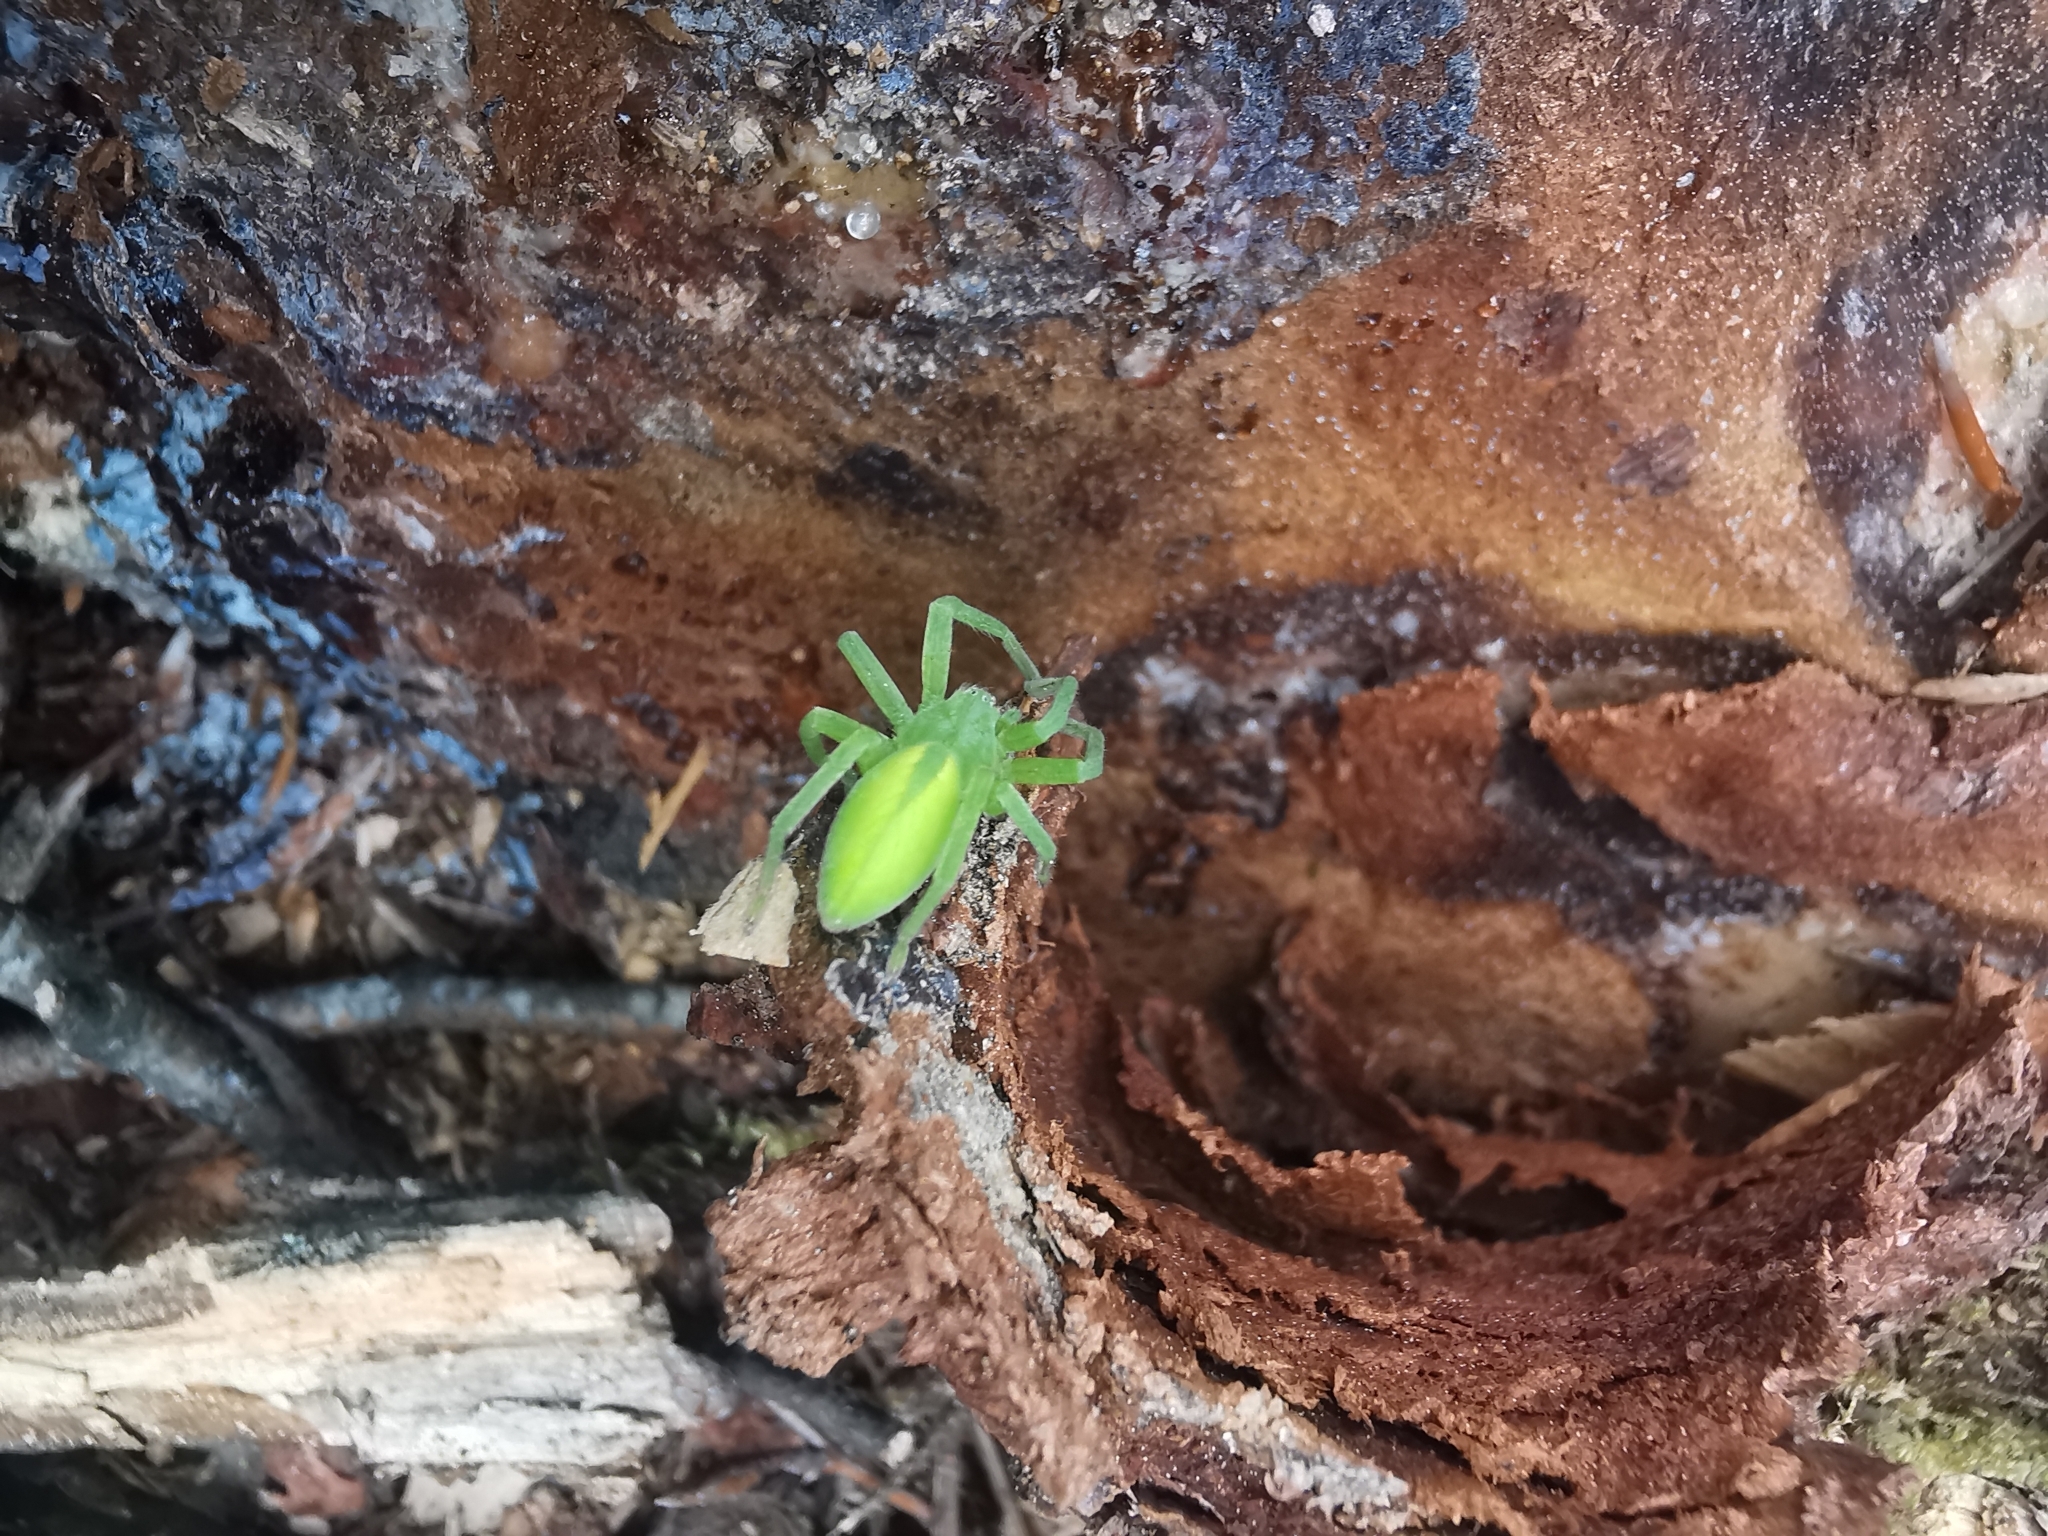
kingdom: Animalia
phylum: Arthropoda
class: Arachnida
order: Araneae
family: Sparassidae
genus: Micrommata
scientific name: Micrommata virescens
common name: Green spider
